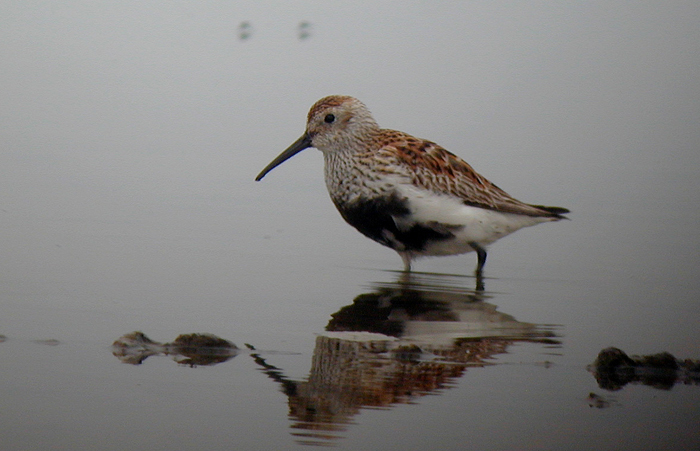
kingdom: Animalia
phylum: Chordata
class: Aves
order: Charadriiformes
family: Scolopacidae
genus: Calidris
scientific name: Calidris alpina
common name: Dunlin
